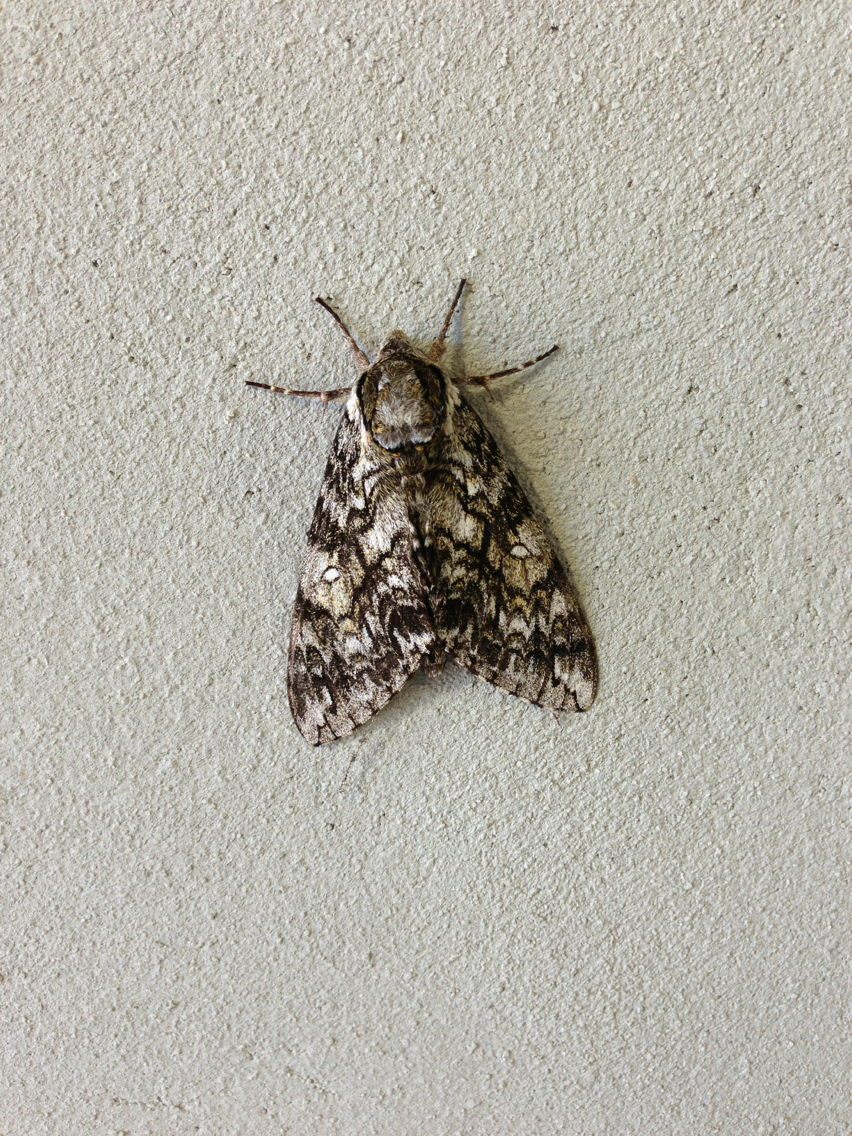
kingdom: Animalia
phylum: Arthropoda
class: Insecta
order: Lepidoptera
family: Sphingidae
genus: Ceratomia
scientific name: Ceratomia undulosa
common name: Waved sphinx
